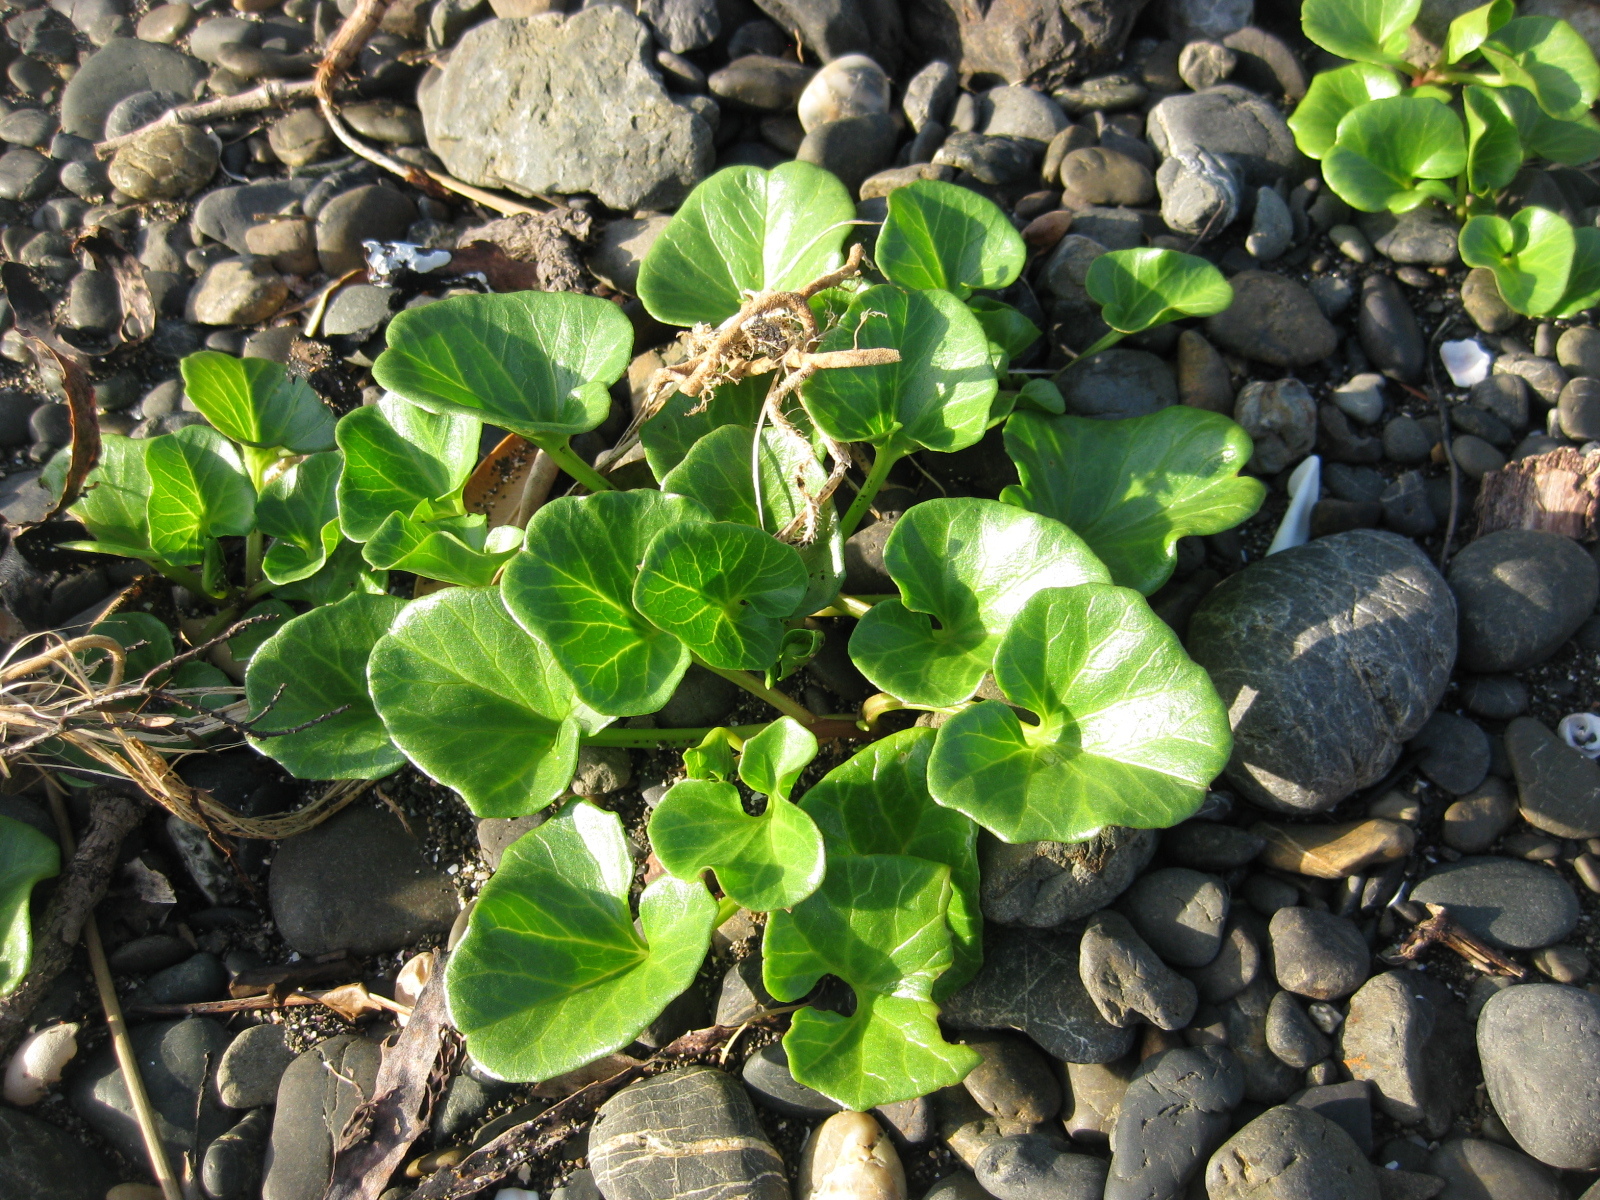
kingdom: Plantae
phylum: Tracheophyta
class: Magnoliopsida
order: Solanales
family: Convolvulaceae
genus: Calystegia
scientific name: Calystegia soldanella
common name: Sea bindweed
